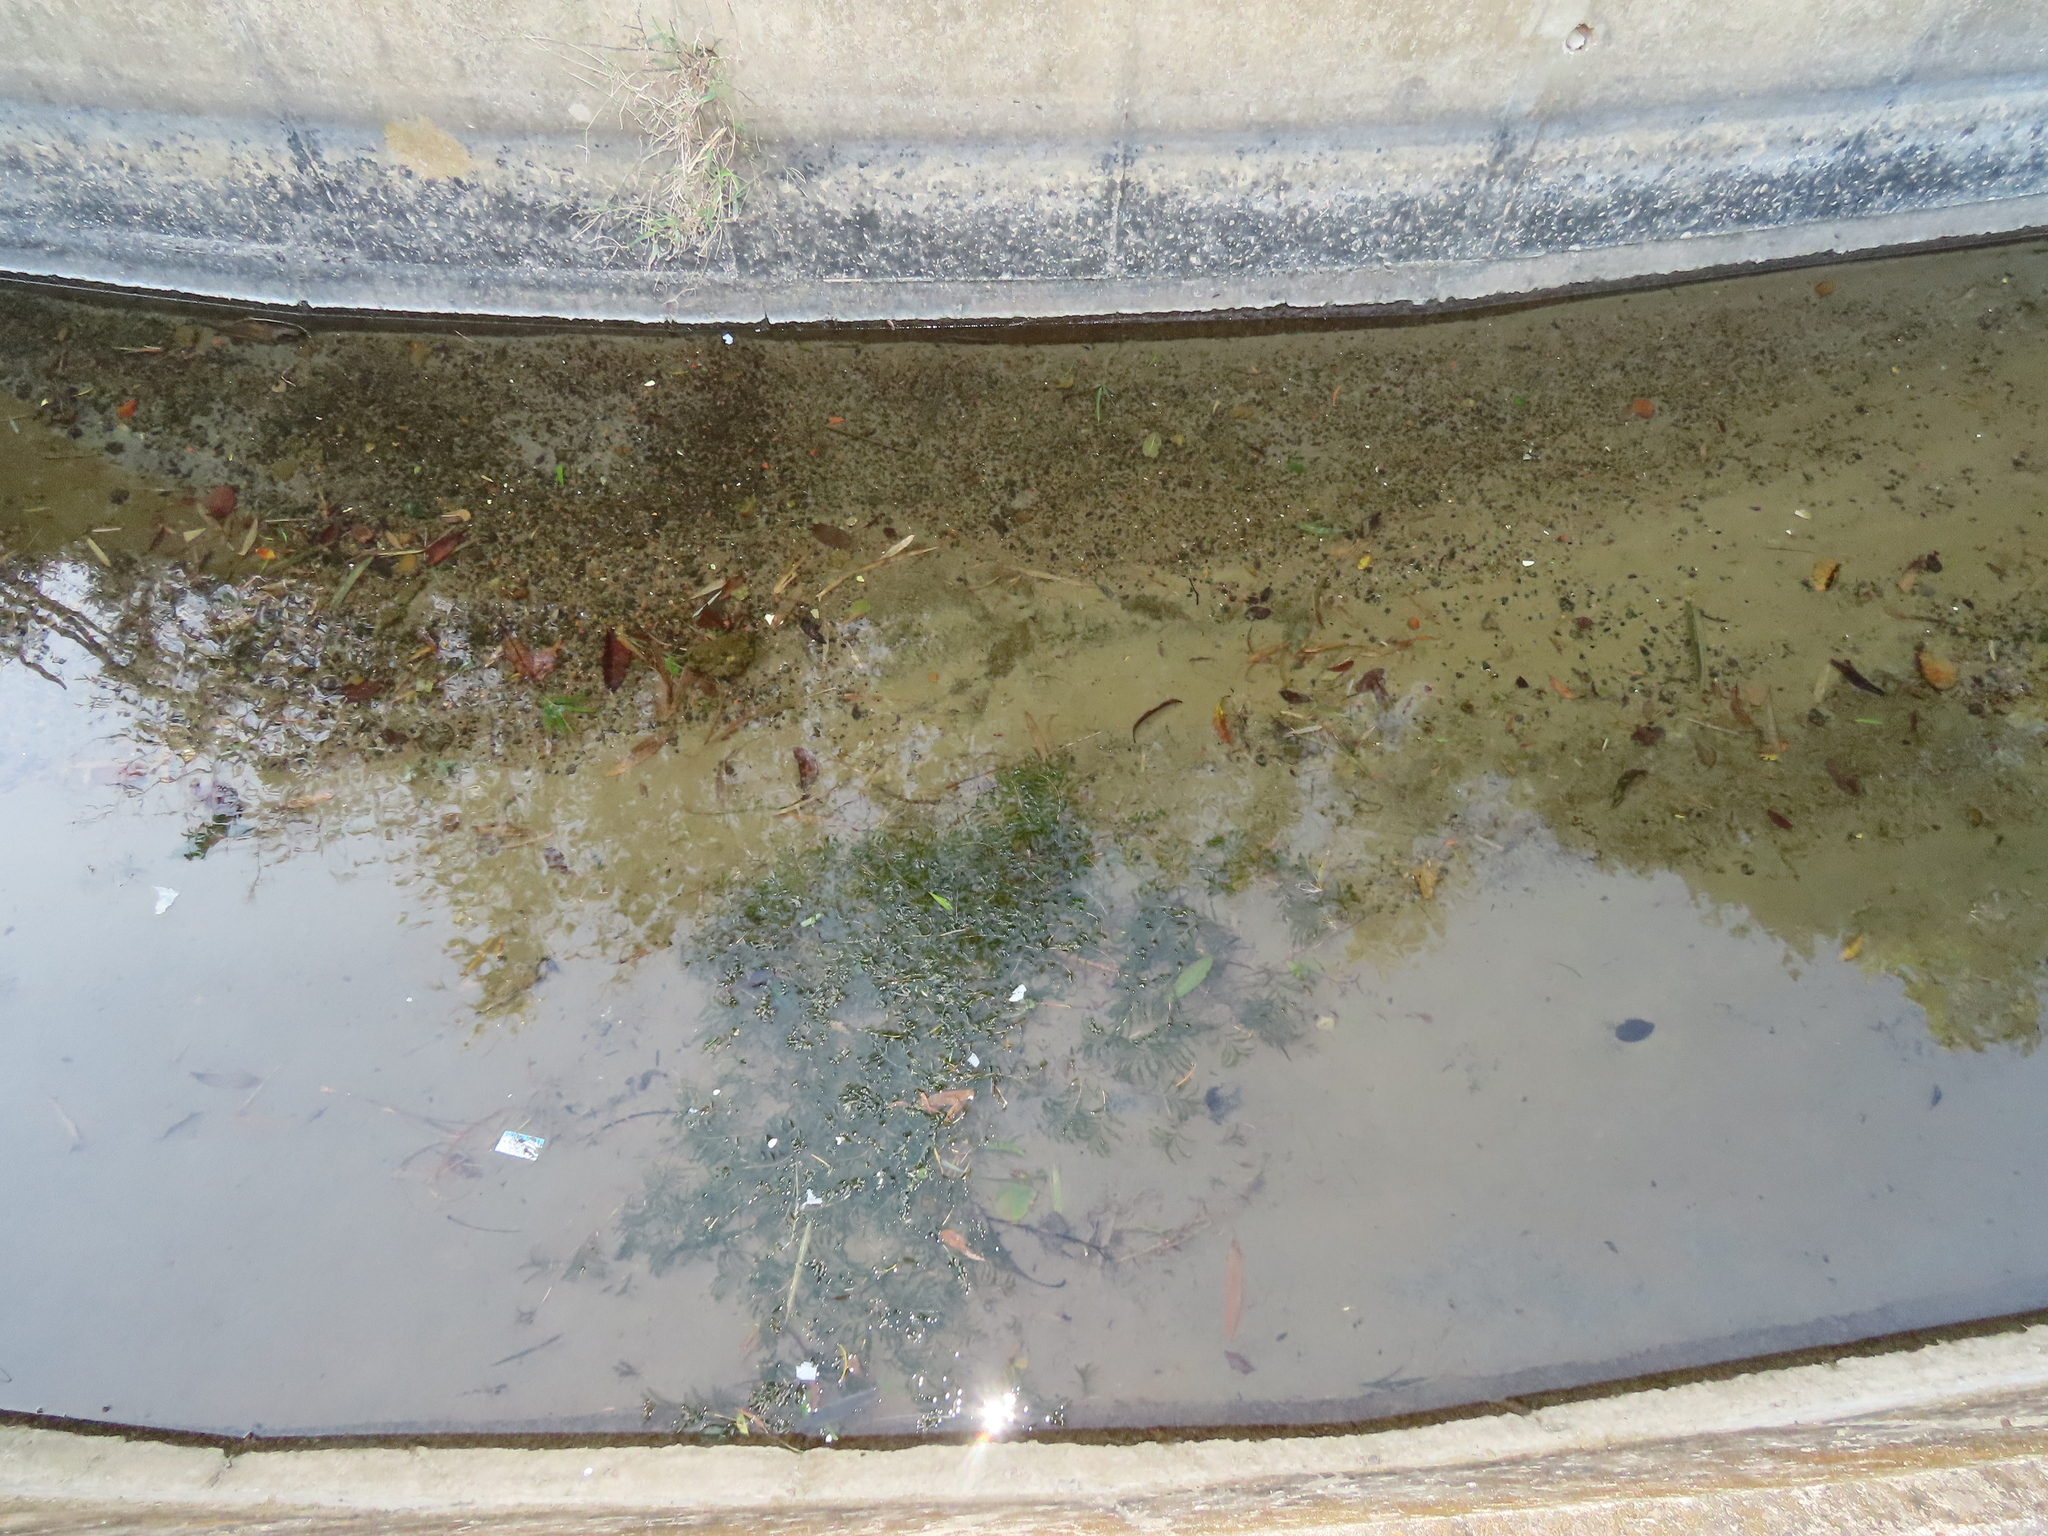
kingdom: Plantae
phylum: Tracheophyta
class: Liliopsida
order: Alismatales
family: Potamogetonaceae
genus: Potamogeton
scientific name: Potamogeton crispus
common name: Curled pondweed
